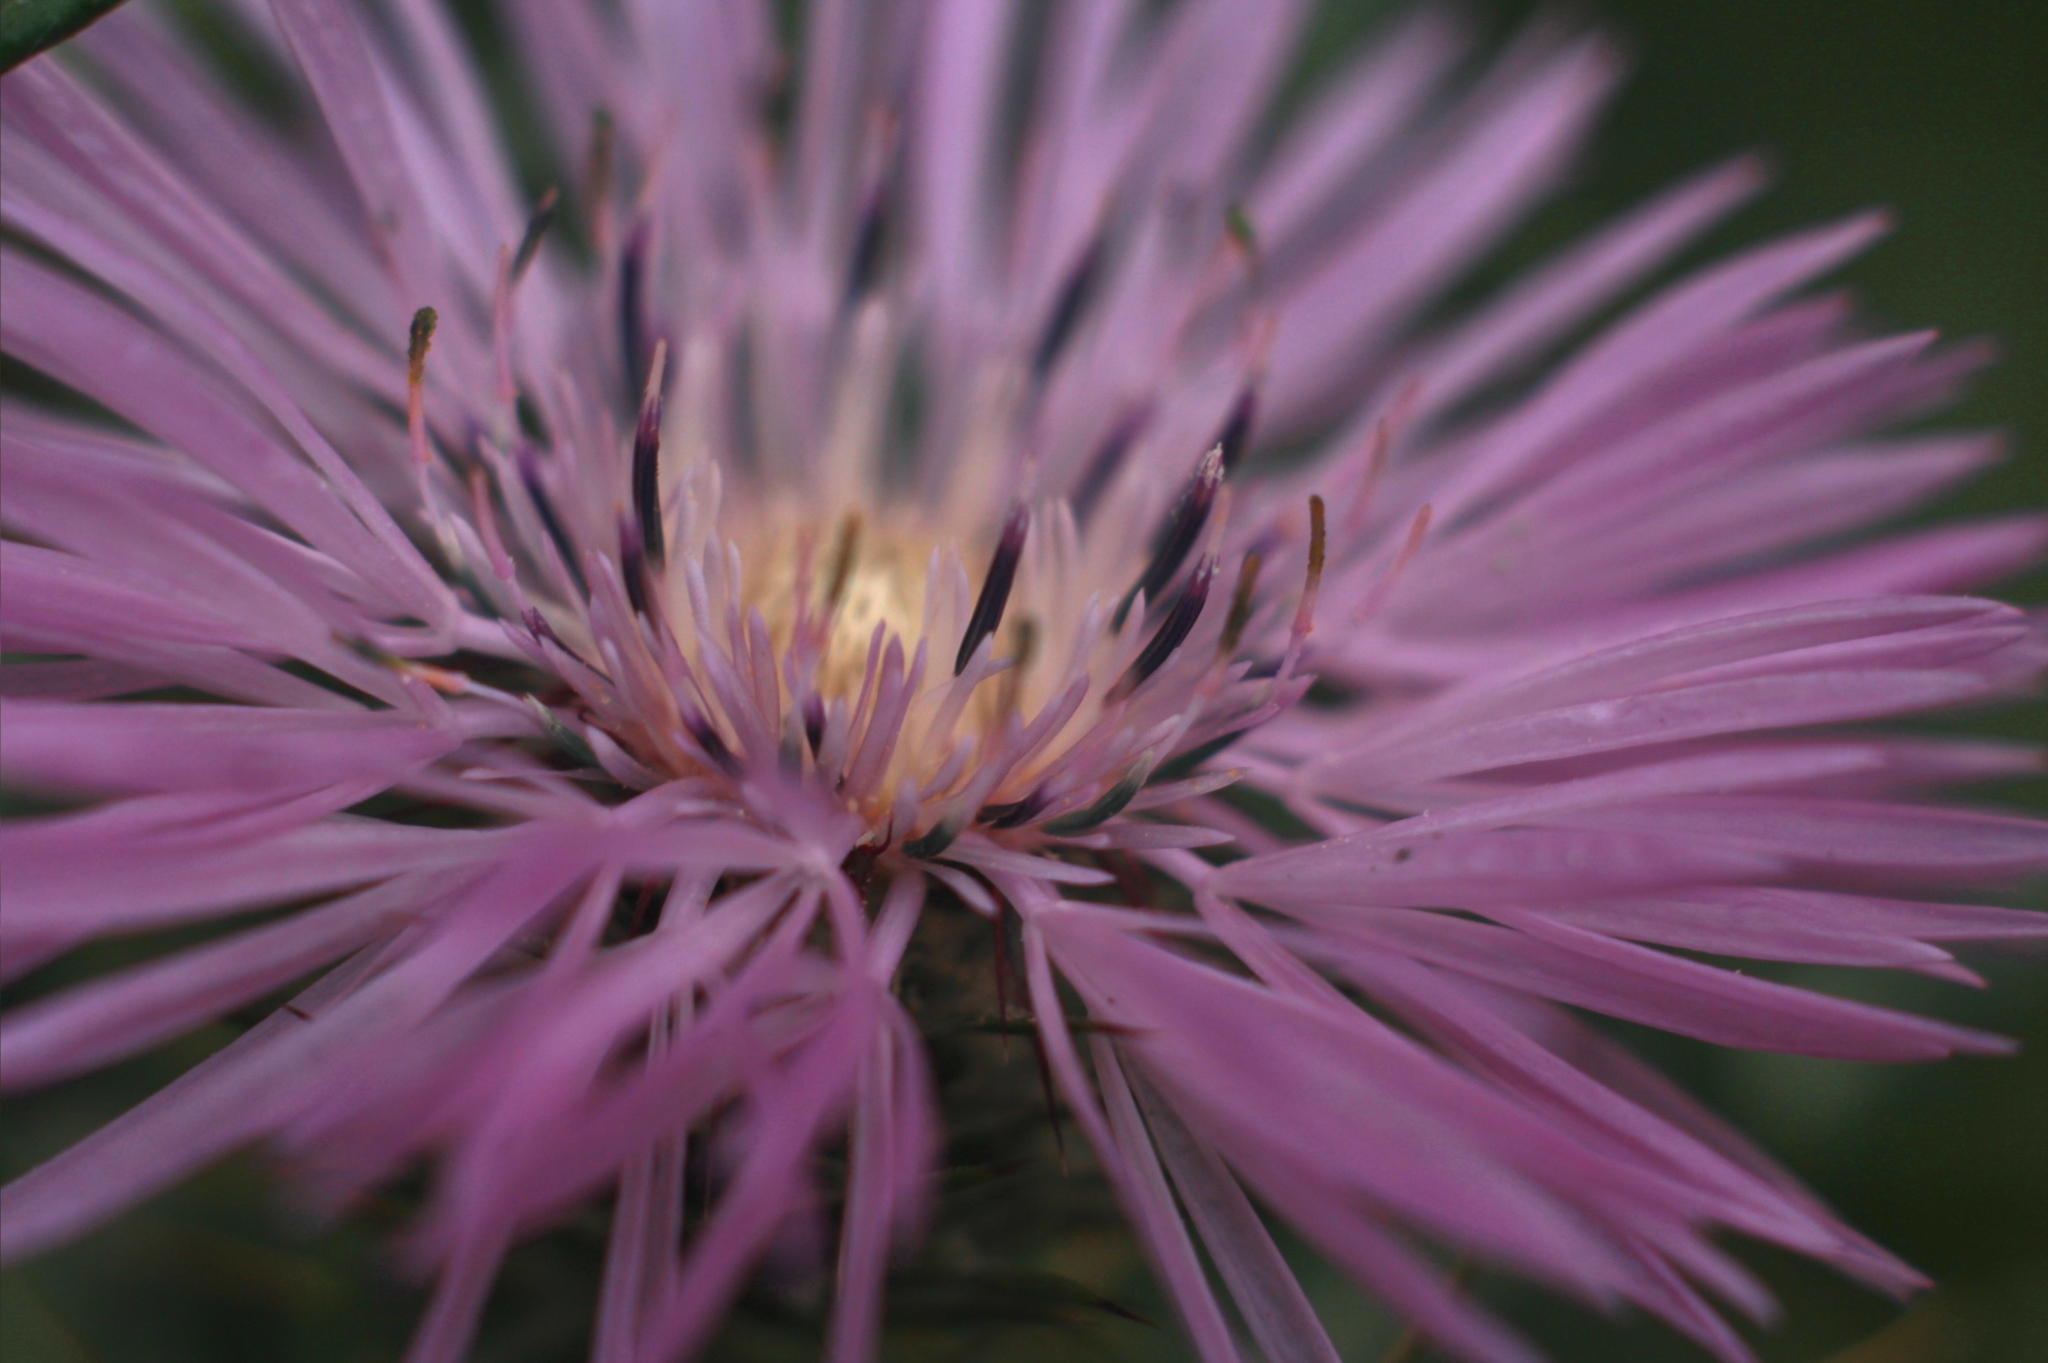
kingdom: Plantae
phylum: Tracheophyta
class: Magnoliopsida
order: Asterales
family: Asteraceae
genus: Galactites
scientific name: Galactites tomentosa
